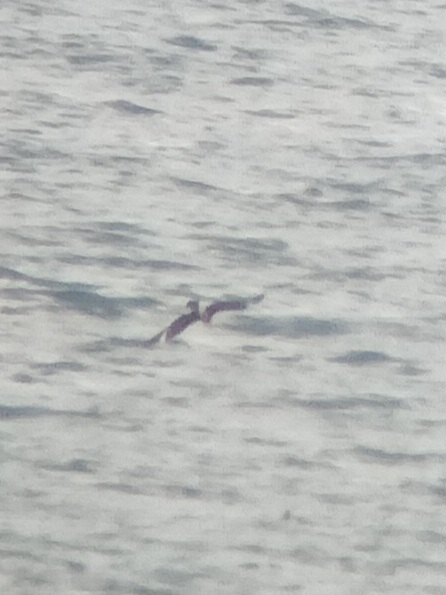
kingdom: Animalia
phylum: Chordata
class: Aves
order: Charadriiformes
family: Stercorariidae
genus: Stercorarius
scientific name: Stercorarius parasiticus
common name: Parasitic jaeger
